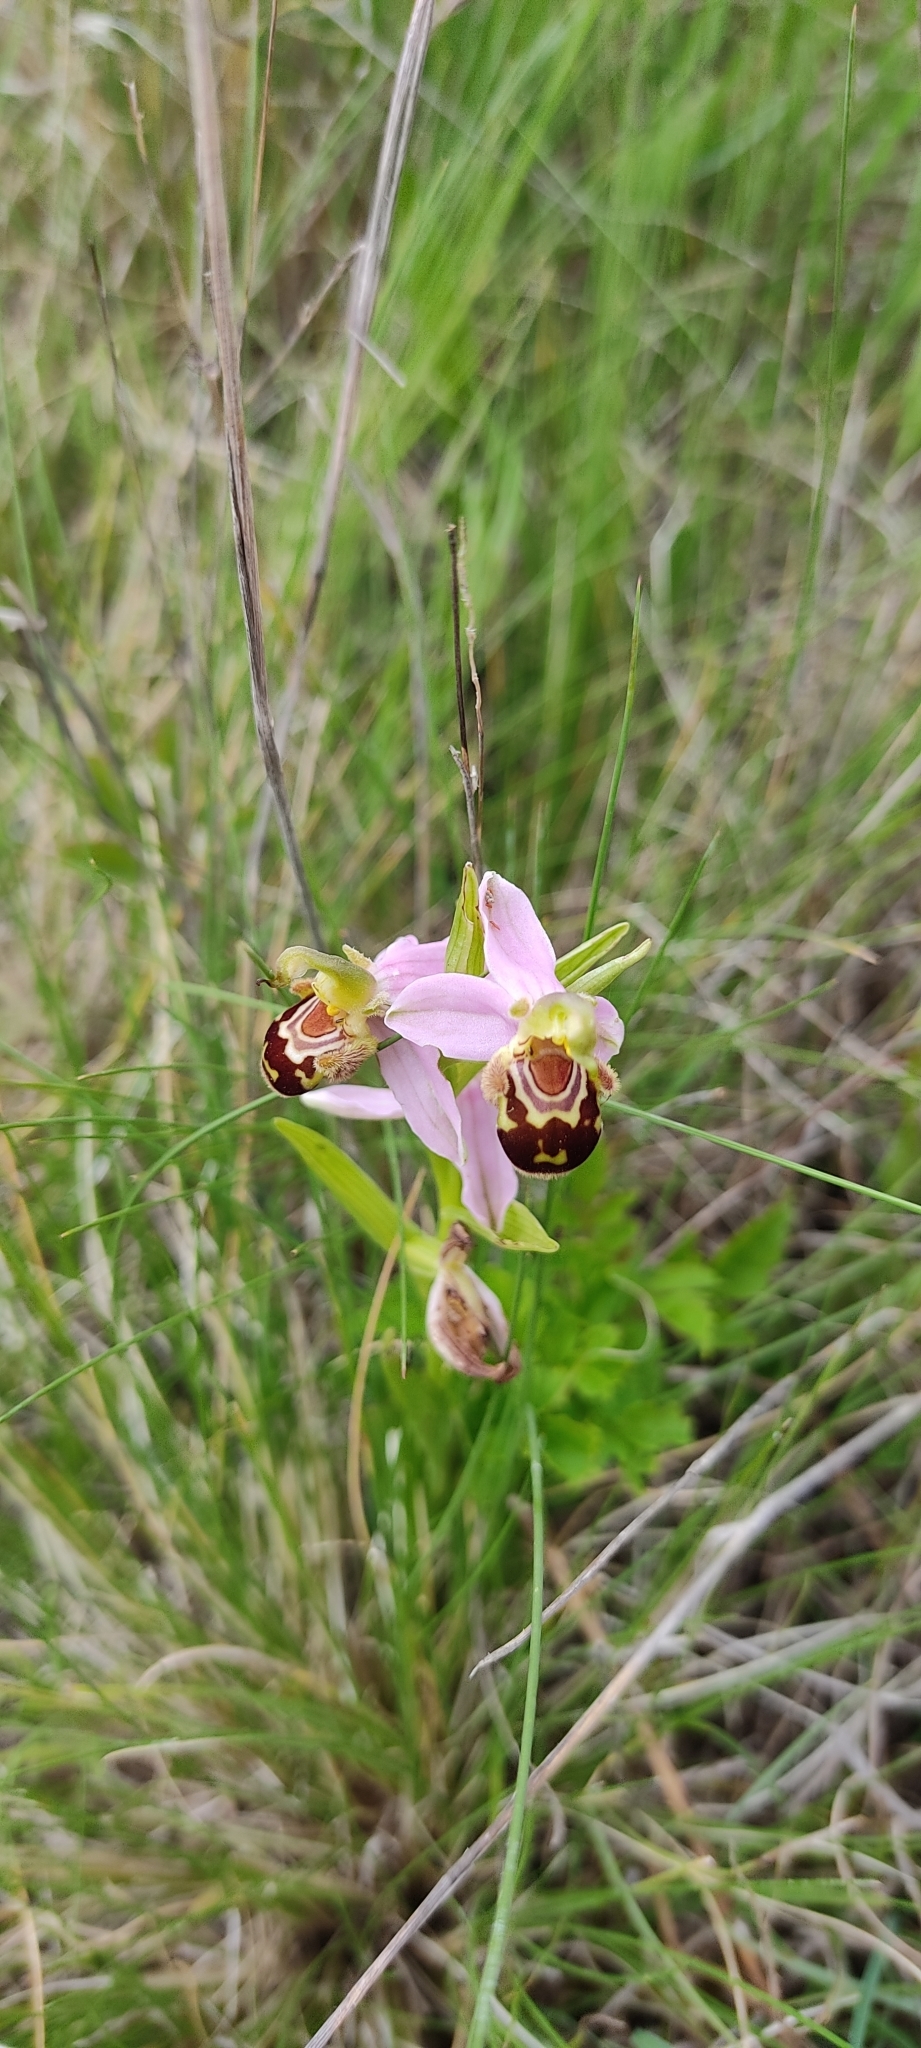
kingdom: Plantae
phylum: Tracheophyta
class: Liliopsida
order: Asparagales
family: Orchidaceae
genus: Ophrys
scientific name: Ophrys apifera
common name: Bee orchid
